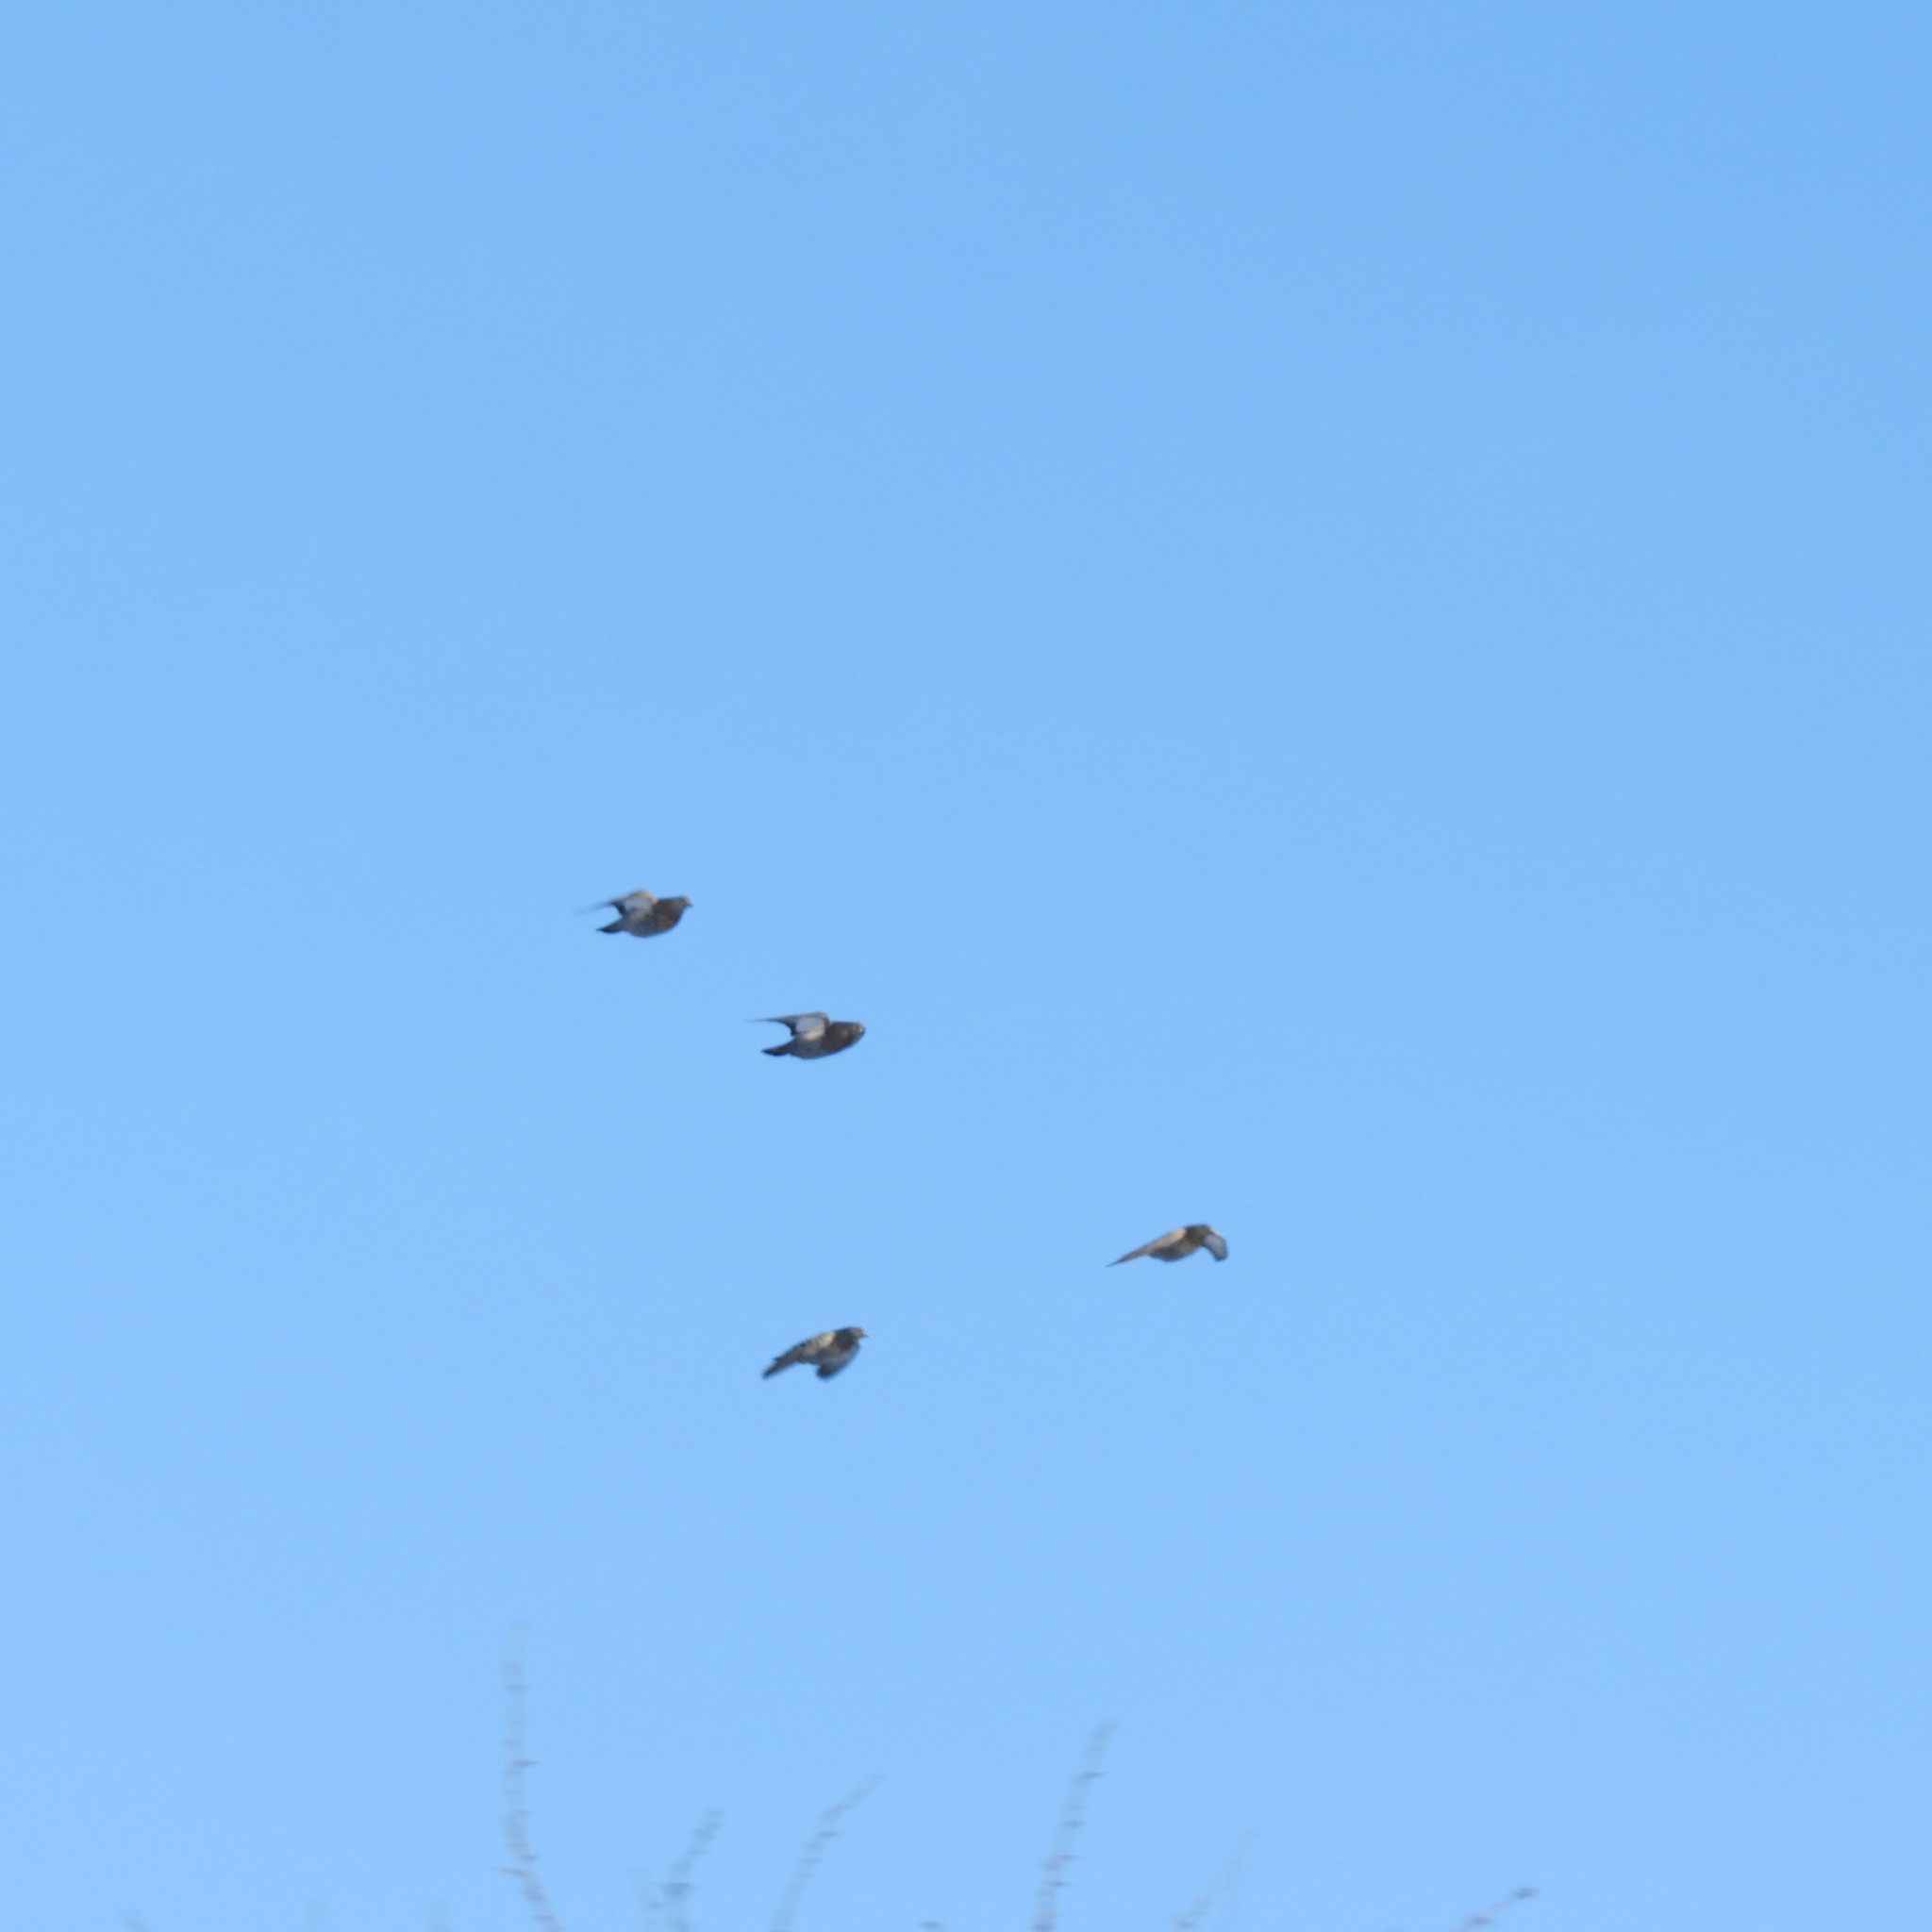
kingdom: Animalia
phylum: Chordata
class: Aves
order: Columbiformes
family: Columbidae
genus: Columba
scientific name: Columba livia
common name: Rock pigeon
